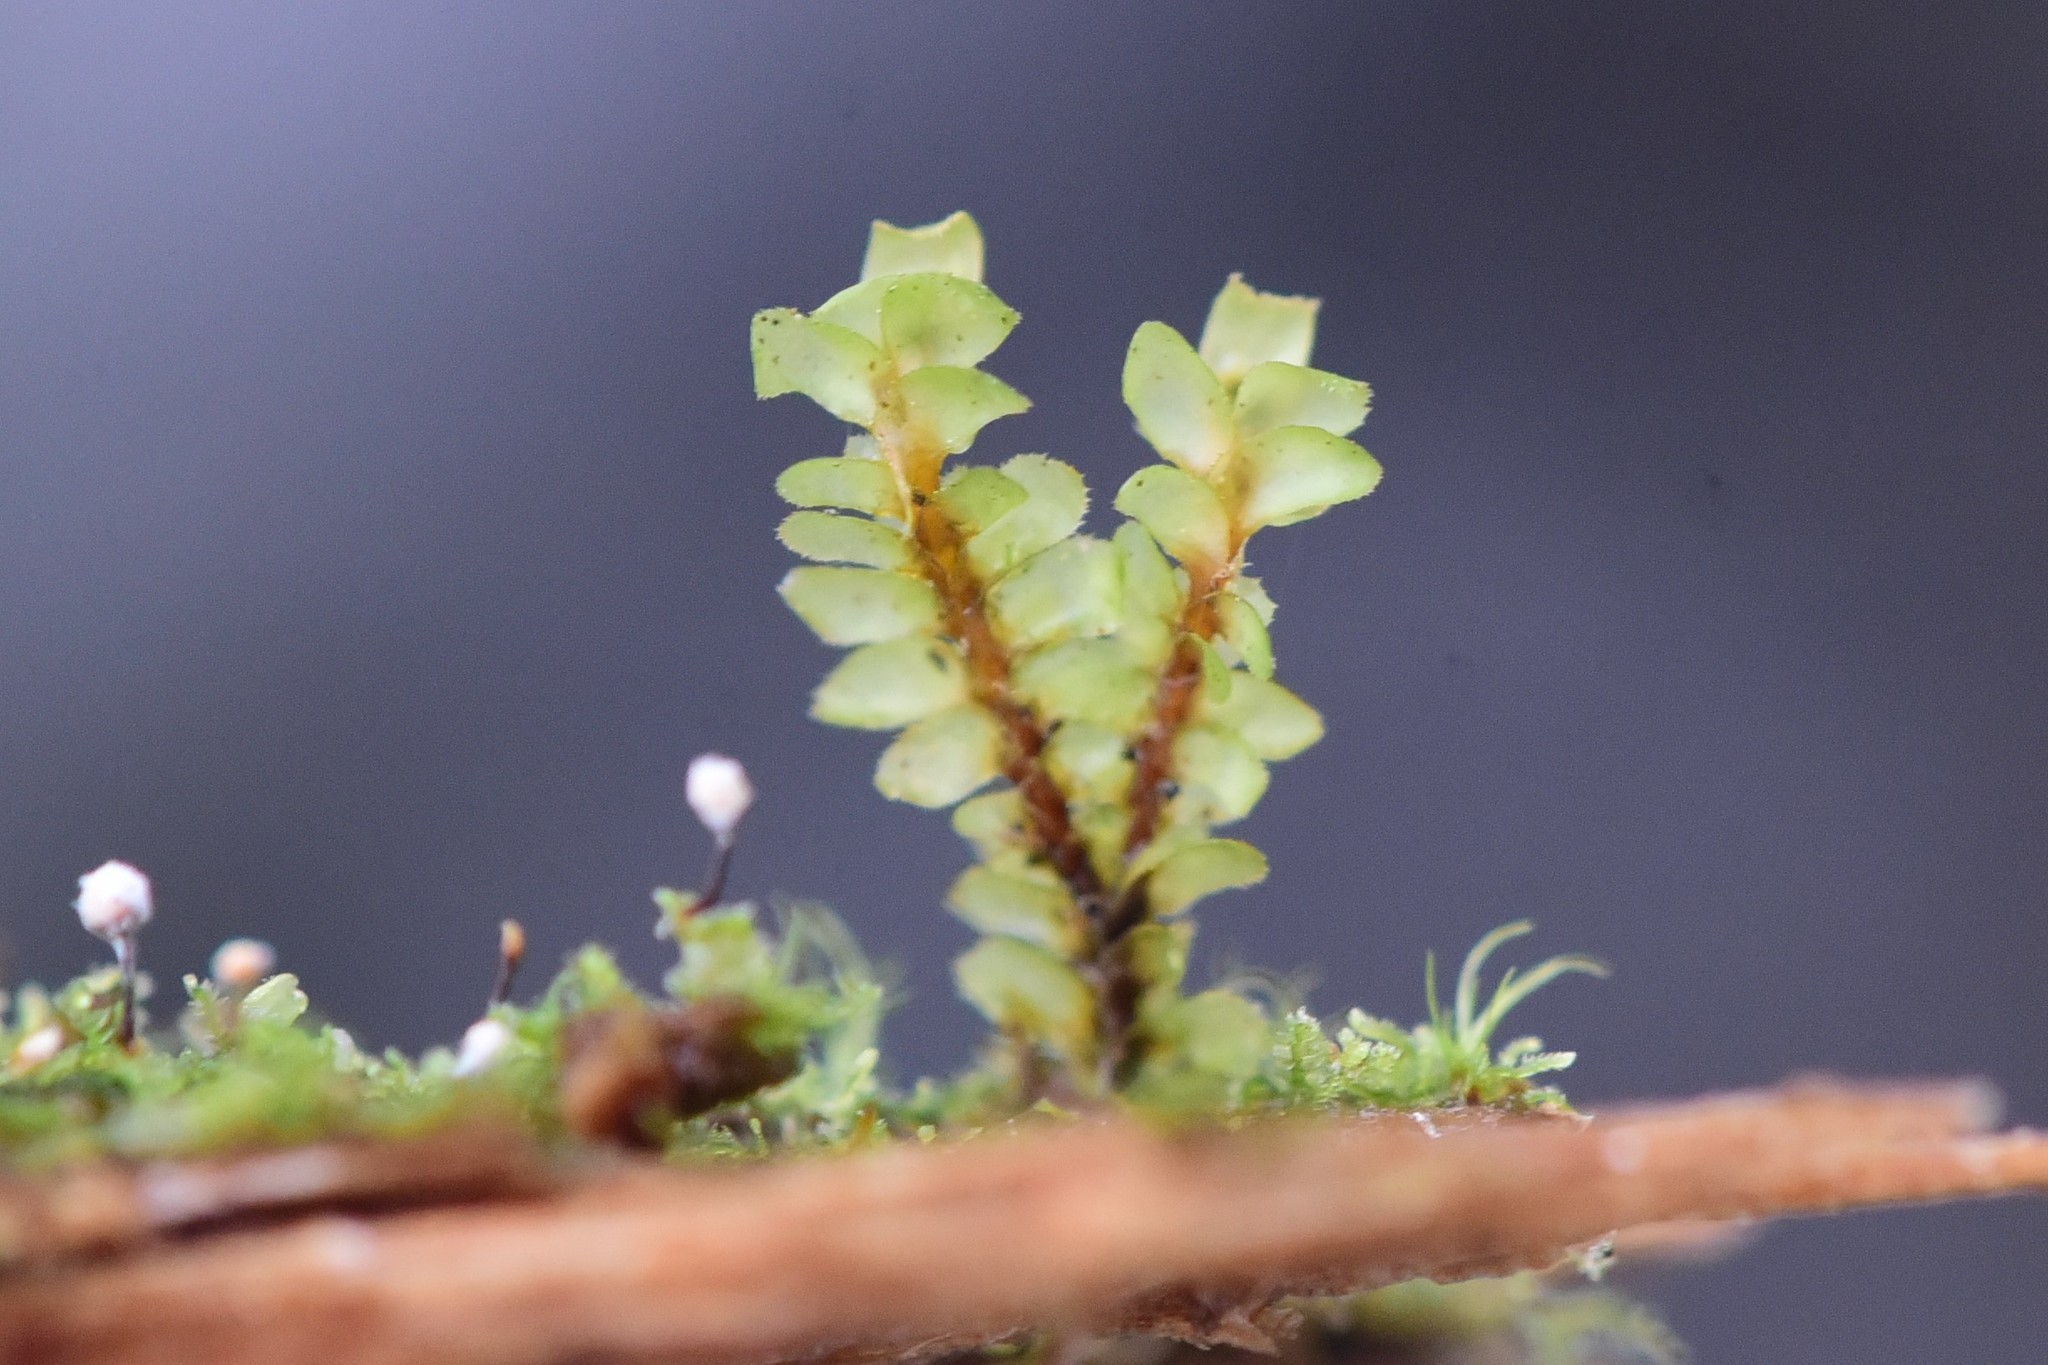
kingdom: Plantae
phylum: Marchantiophyta
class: Jungermanniopsida
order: Jungermanniales
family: Scapaniaceae
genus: Scapania
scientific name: Scapania bolanderi
